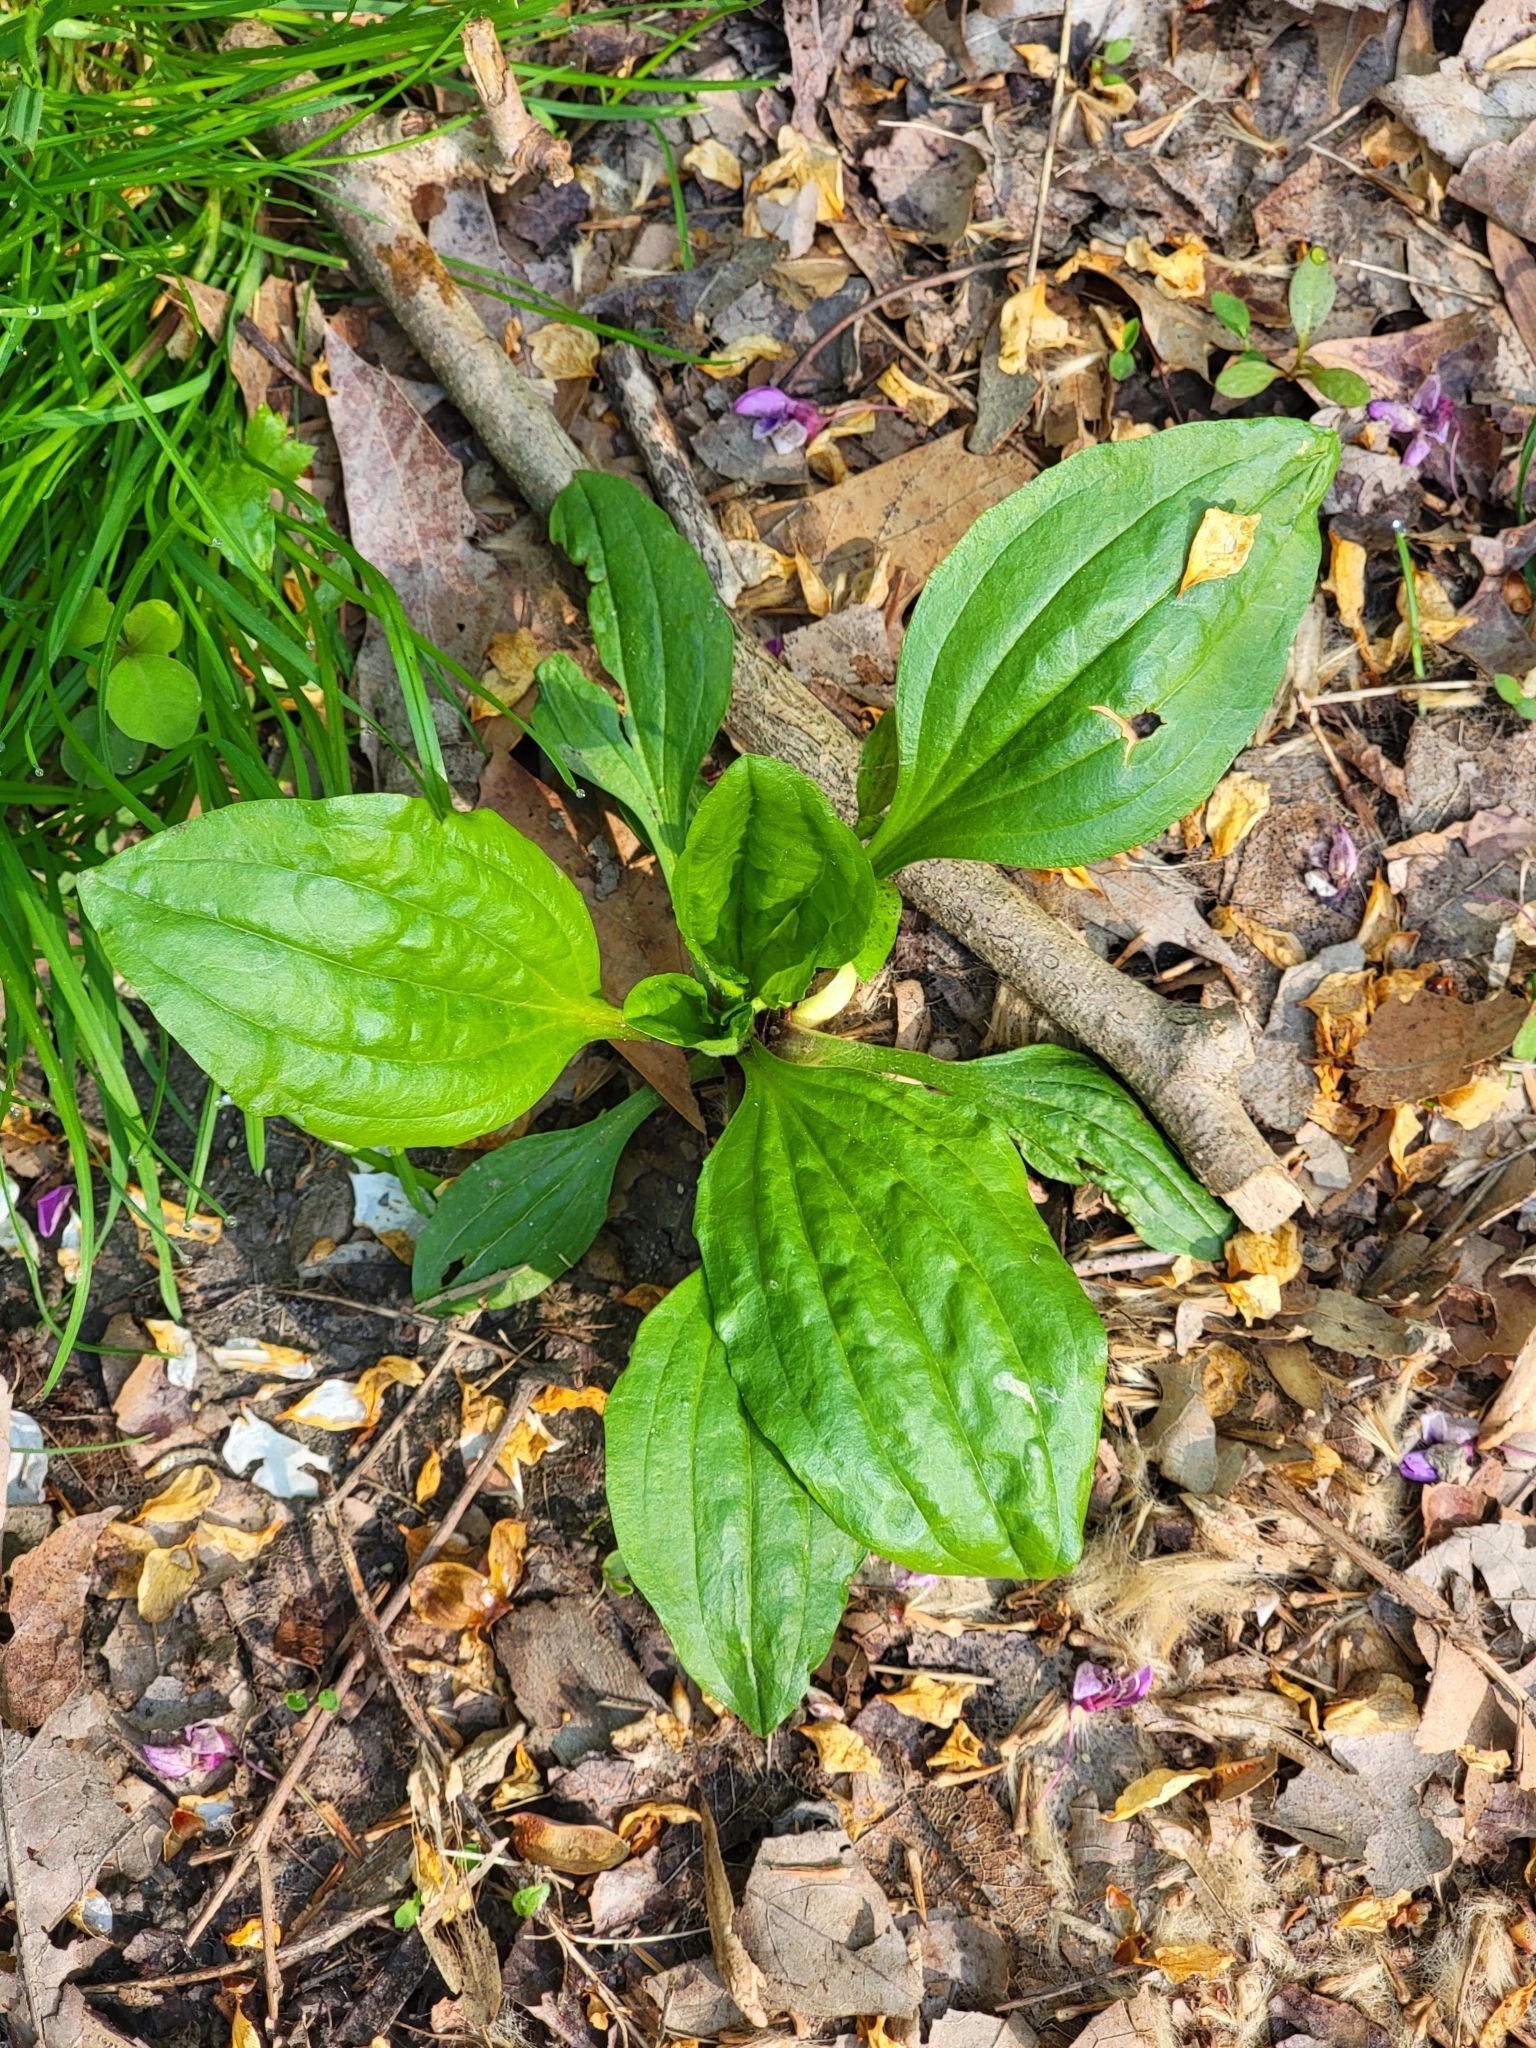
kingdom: Plantae
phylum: Tracheophyta
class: Magnoliopsida
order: Lamiales
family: Plantaginaceae
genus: Plantago
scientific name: Plantago rugelii
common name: American plantain
